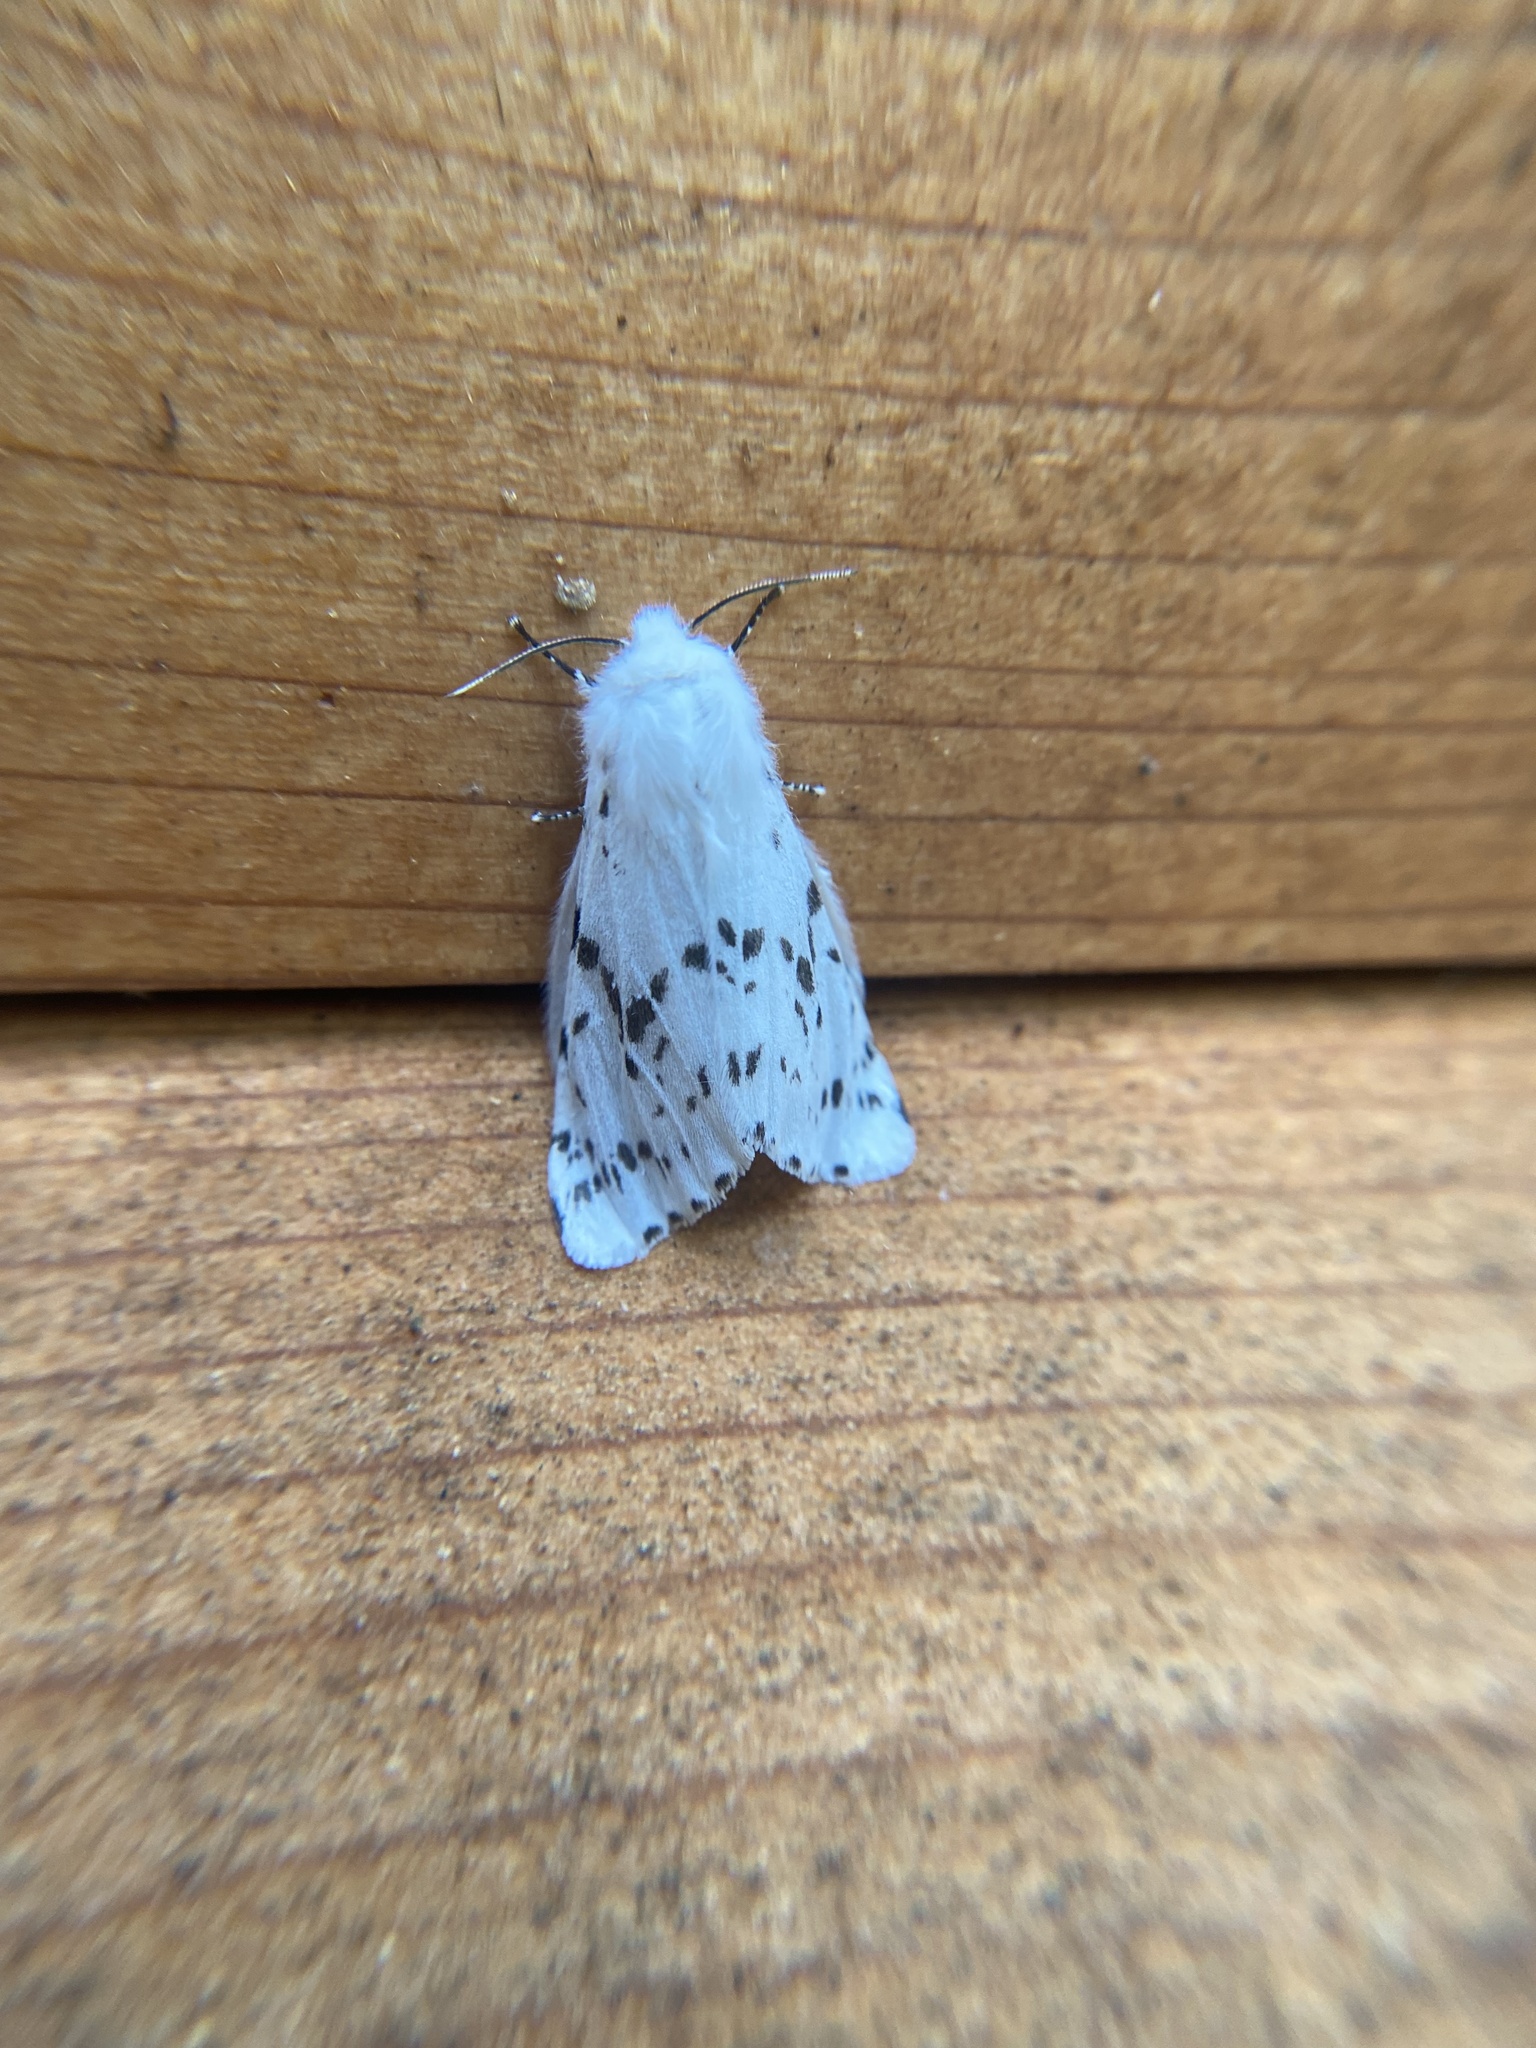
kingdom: Animalia
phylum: Arthropoda
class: Insecta
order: Lepidoptera
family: Erebidae
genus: Hyphantria
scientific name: Hyphantria cunea
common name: American white moth
